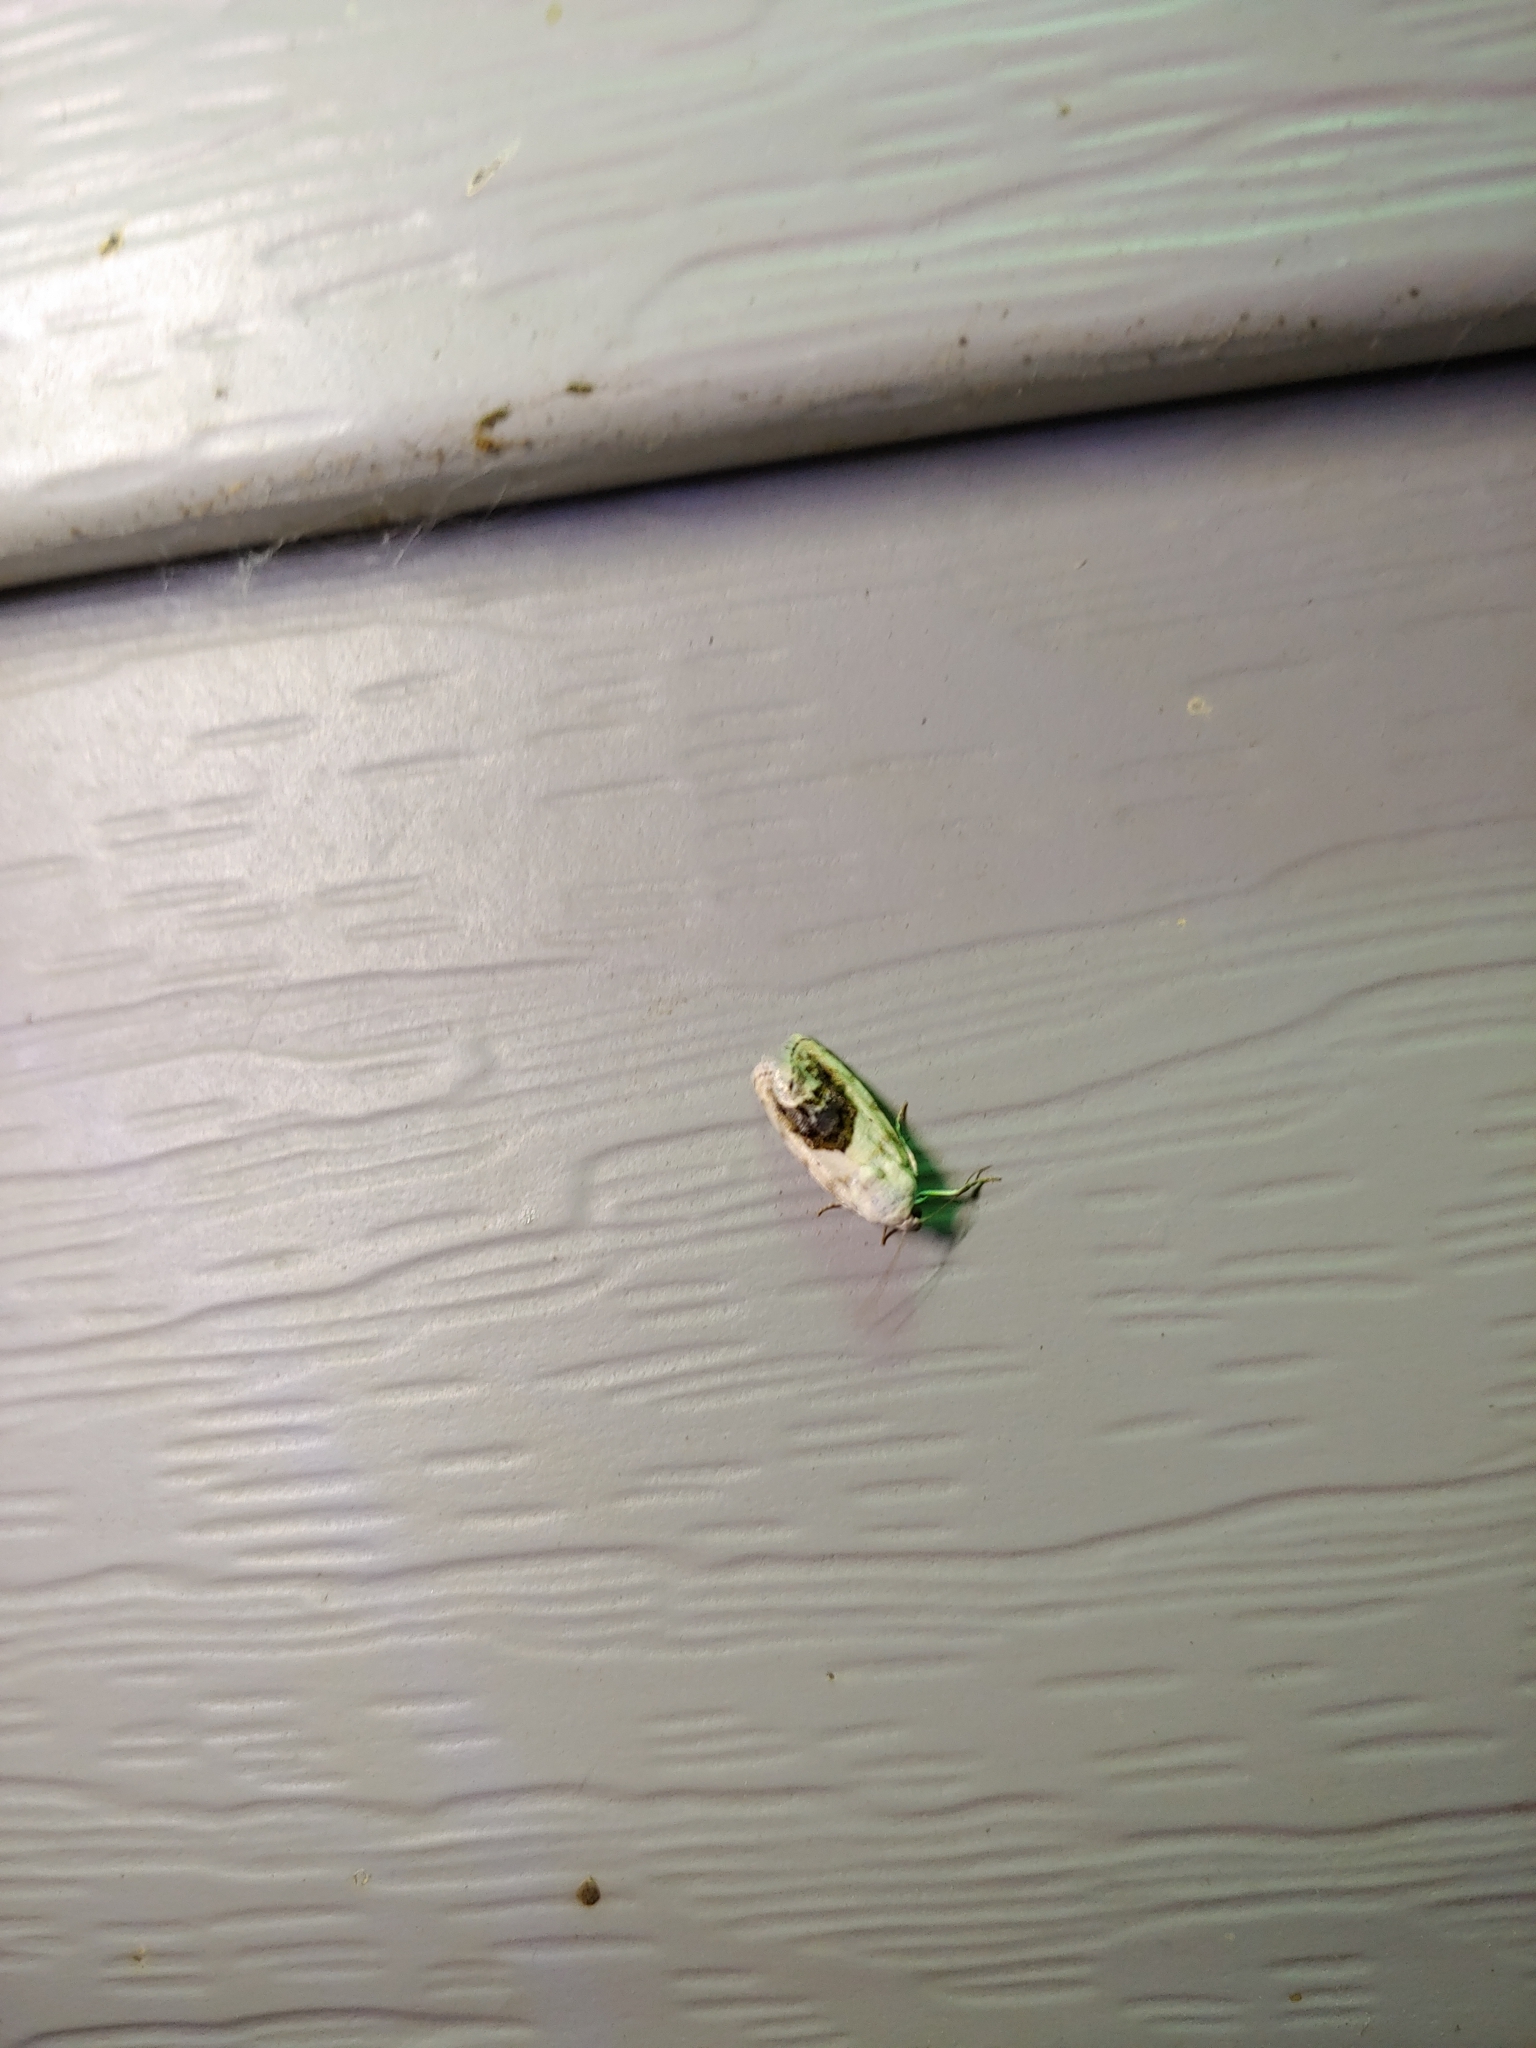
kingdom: Animalia
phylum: Arthropoda
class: Insecta
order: Lepidoptera
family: Noctuidae
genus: Acontia
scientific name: Acontia erastrioides
